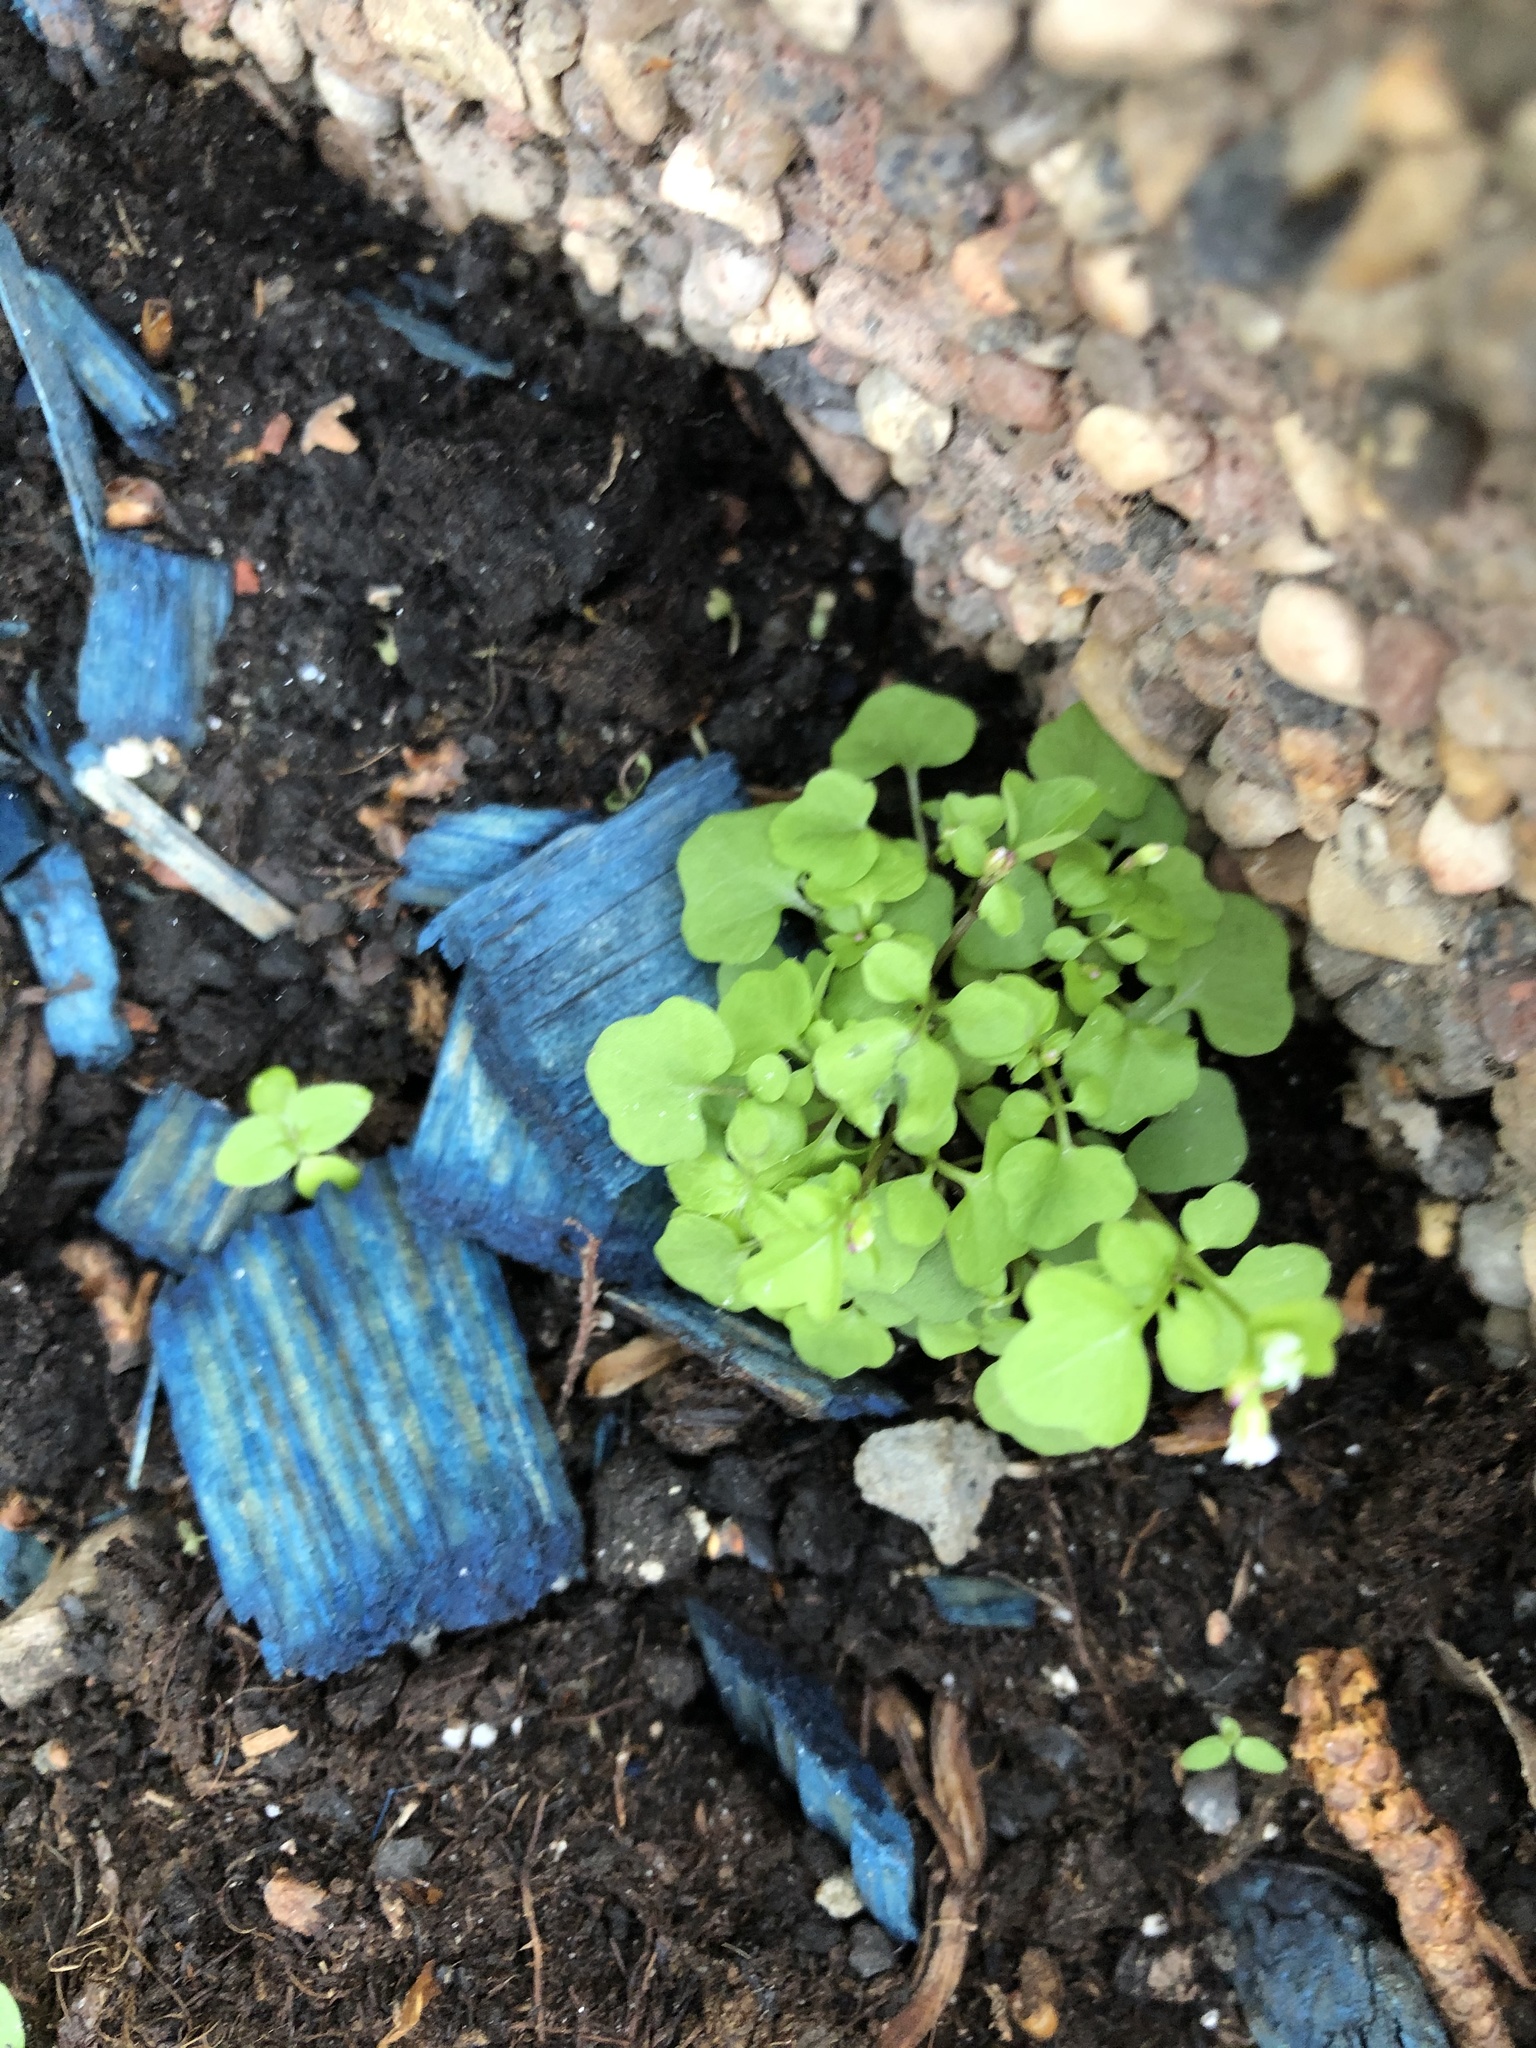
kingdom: Plantae
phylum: Tracheophyta
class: Magnoliopsida
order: Brassicales
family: Brassicaceae
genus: Cardamine
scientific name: Cardamine occulta
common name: Asian wavy bittercress
